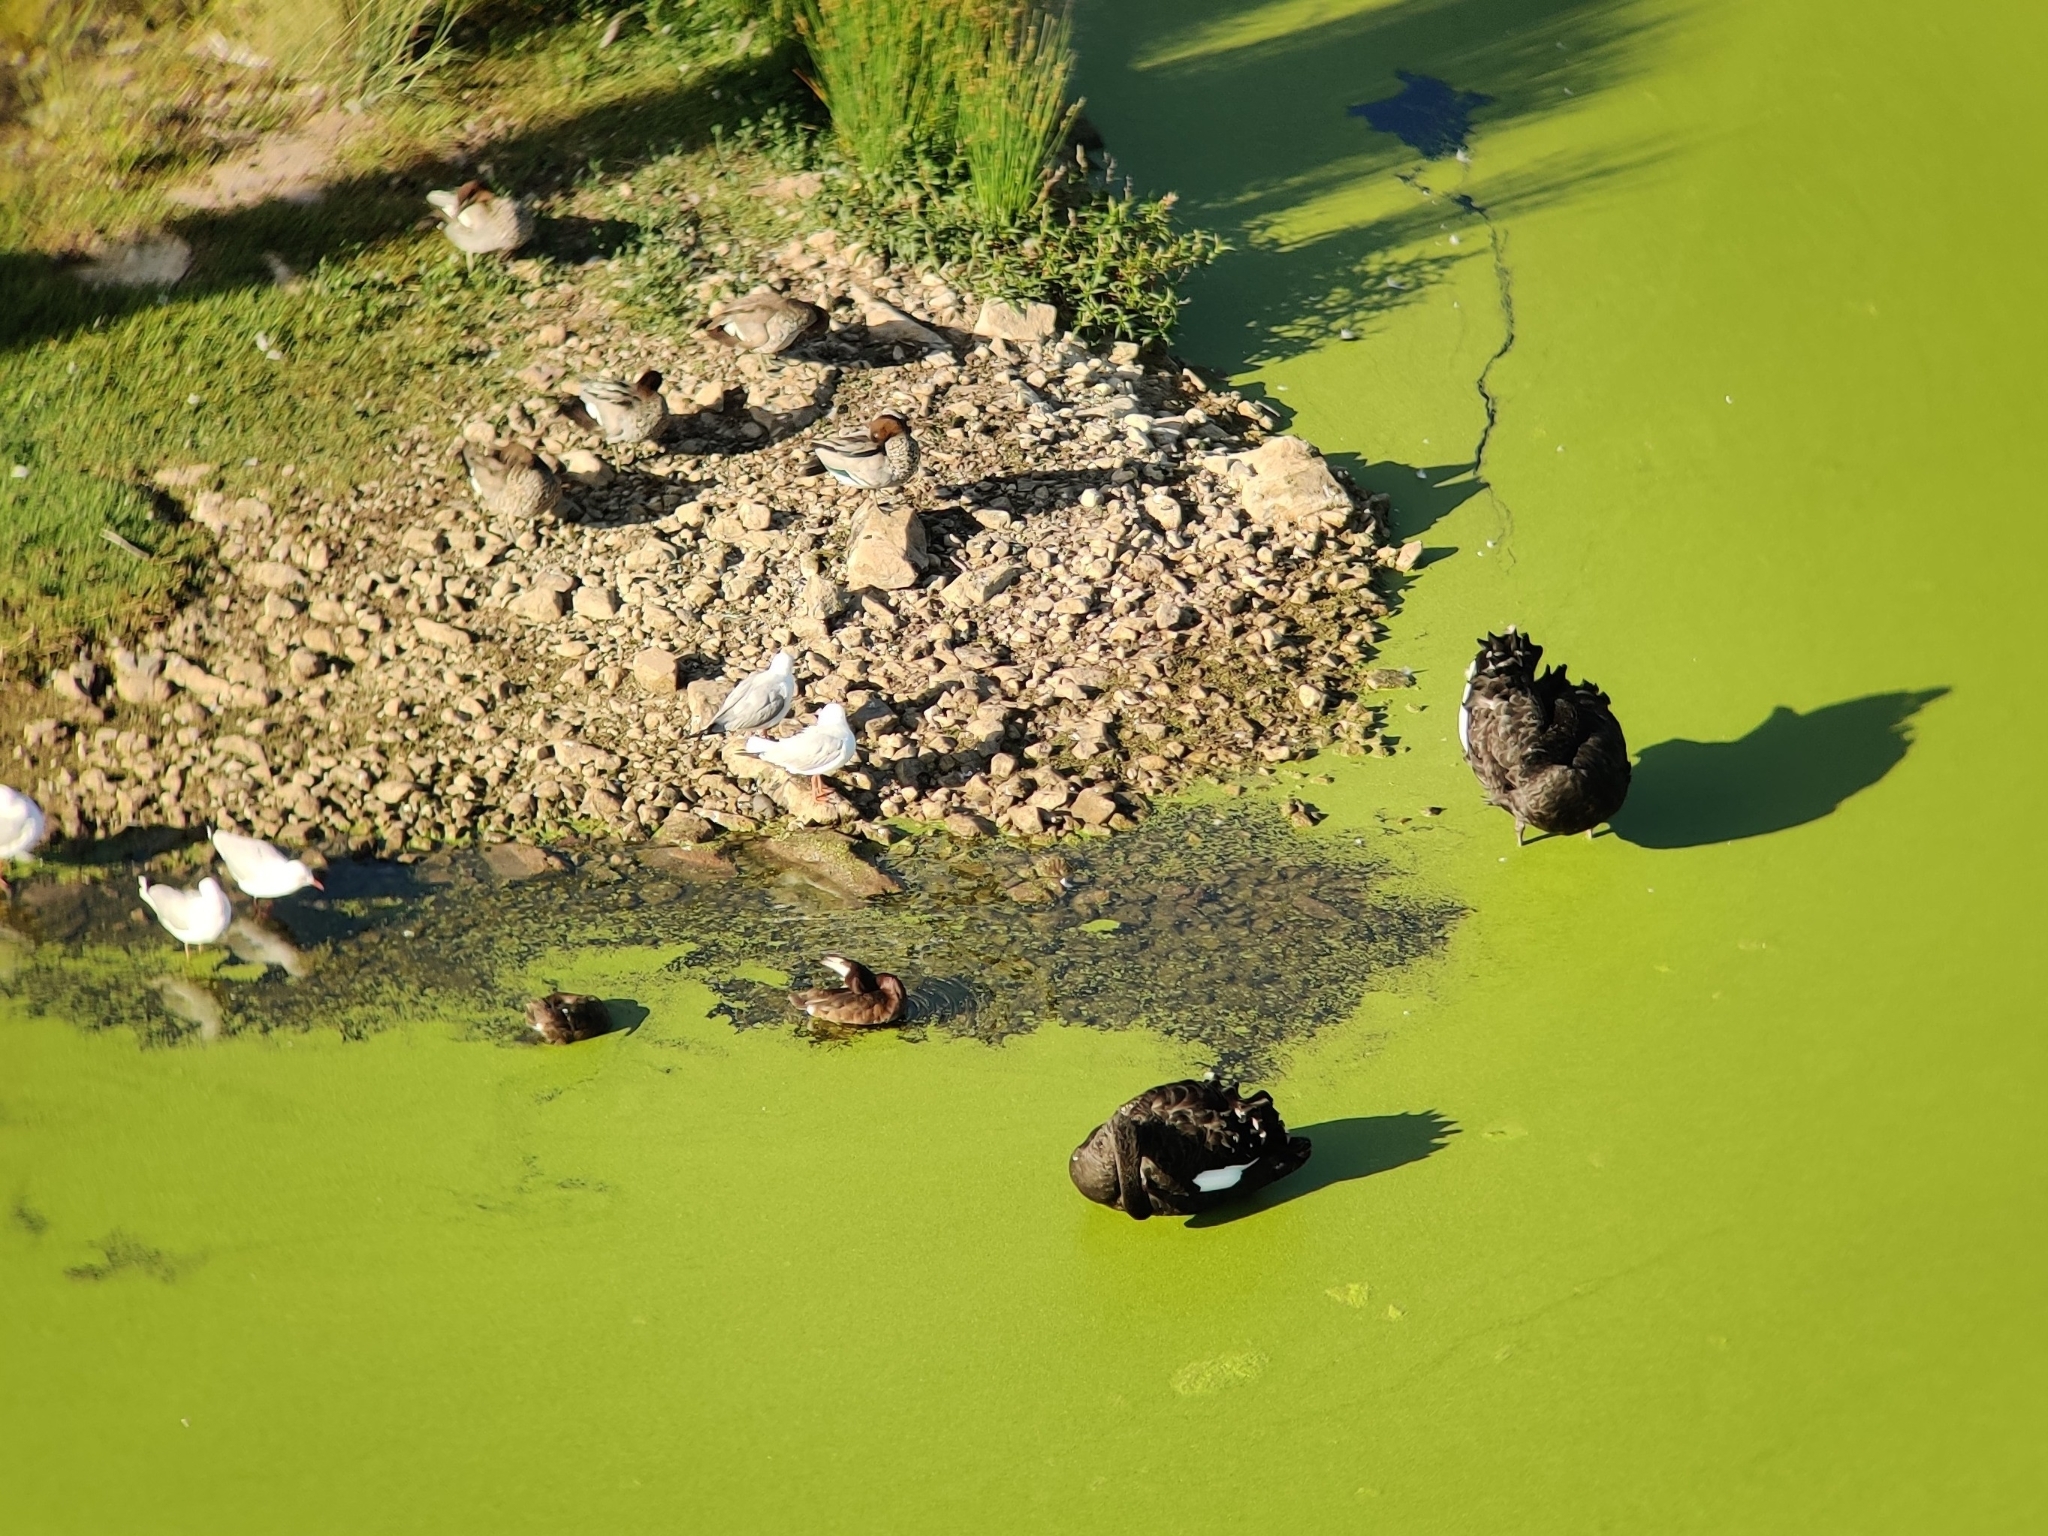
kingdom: Animalia
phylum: Chordata
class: Aves
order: Anseriformes
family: Anatidae
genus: Chenonetta
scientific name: Chenonetta jubata
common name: Maned duck
